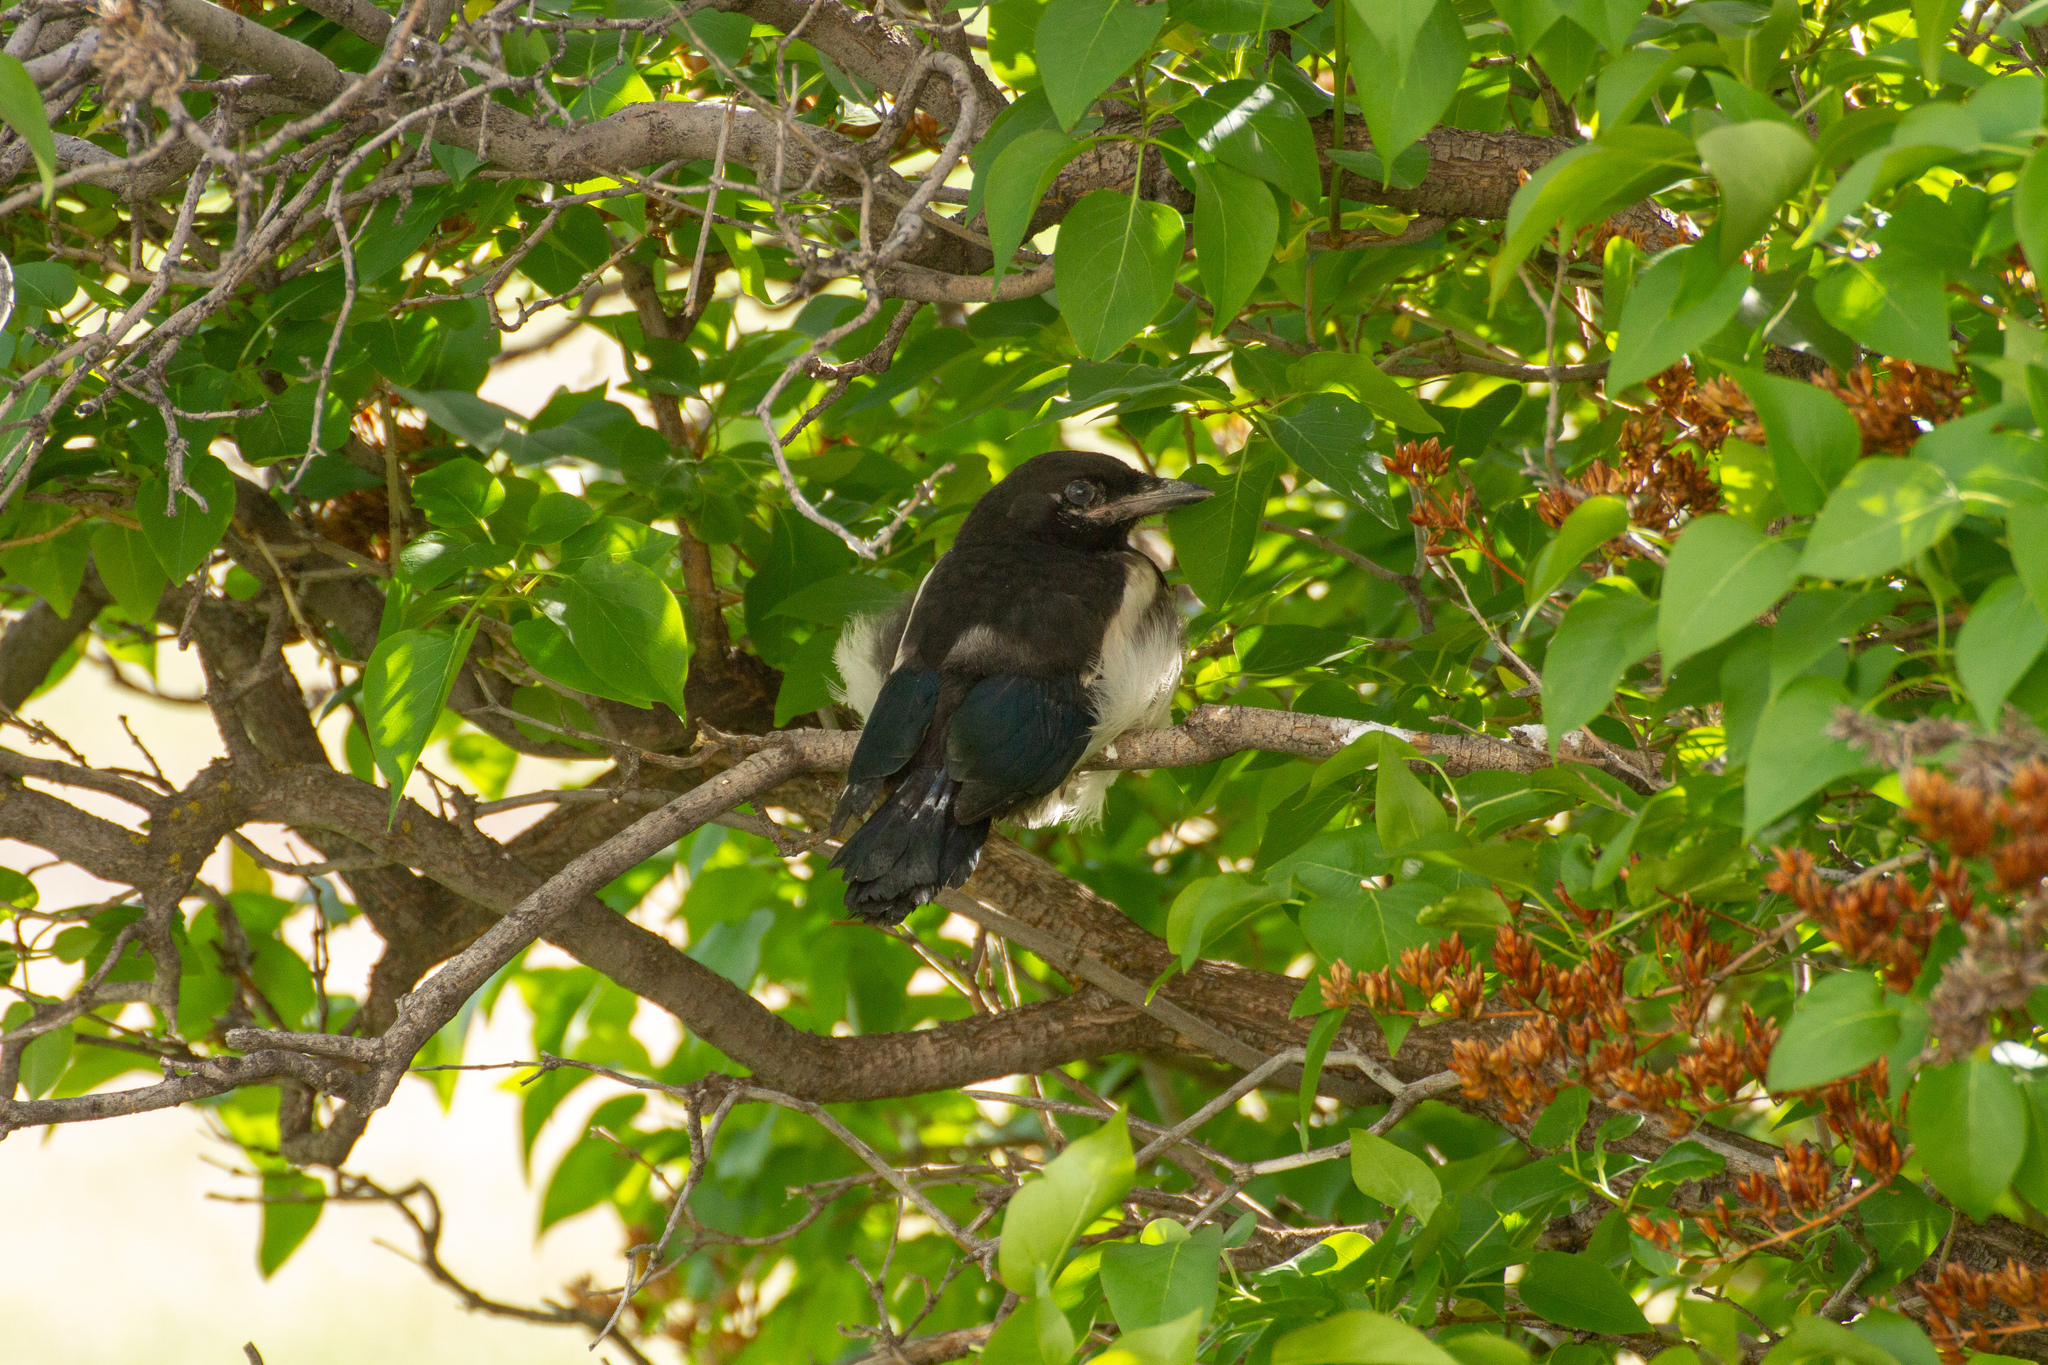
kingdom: Animalia
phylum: Chordata
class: Aves
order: Passeriformes
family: Corvidae
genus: Pica
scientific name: Pica hudsonia
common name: Black-billed magpie
